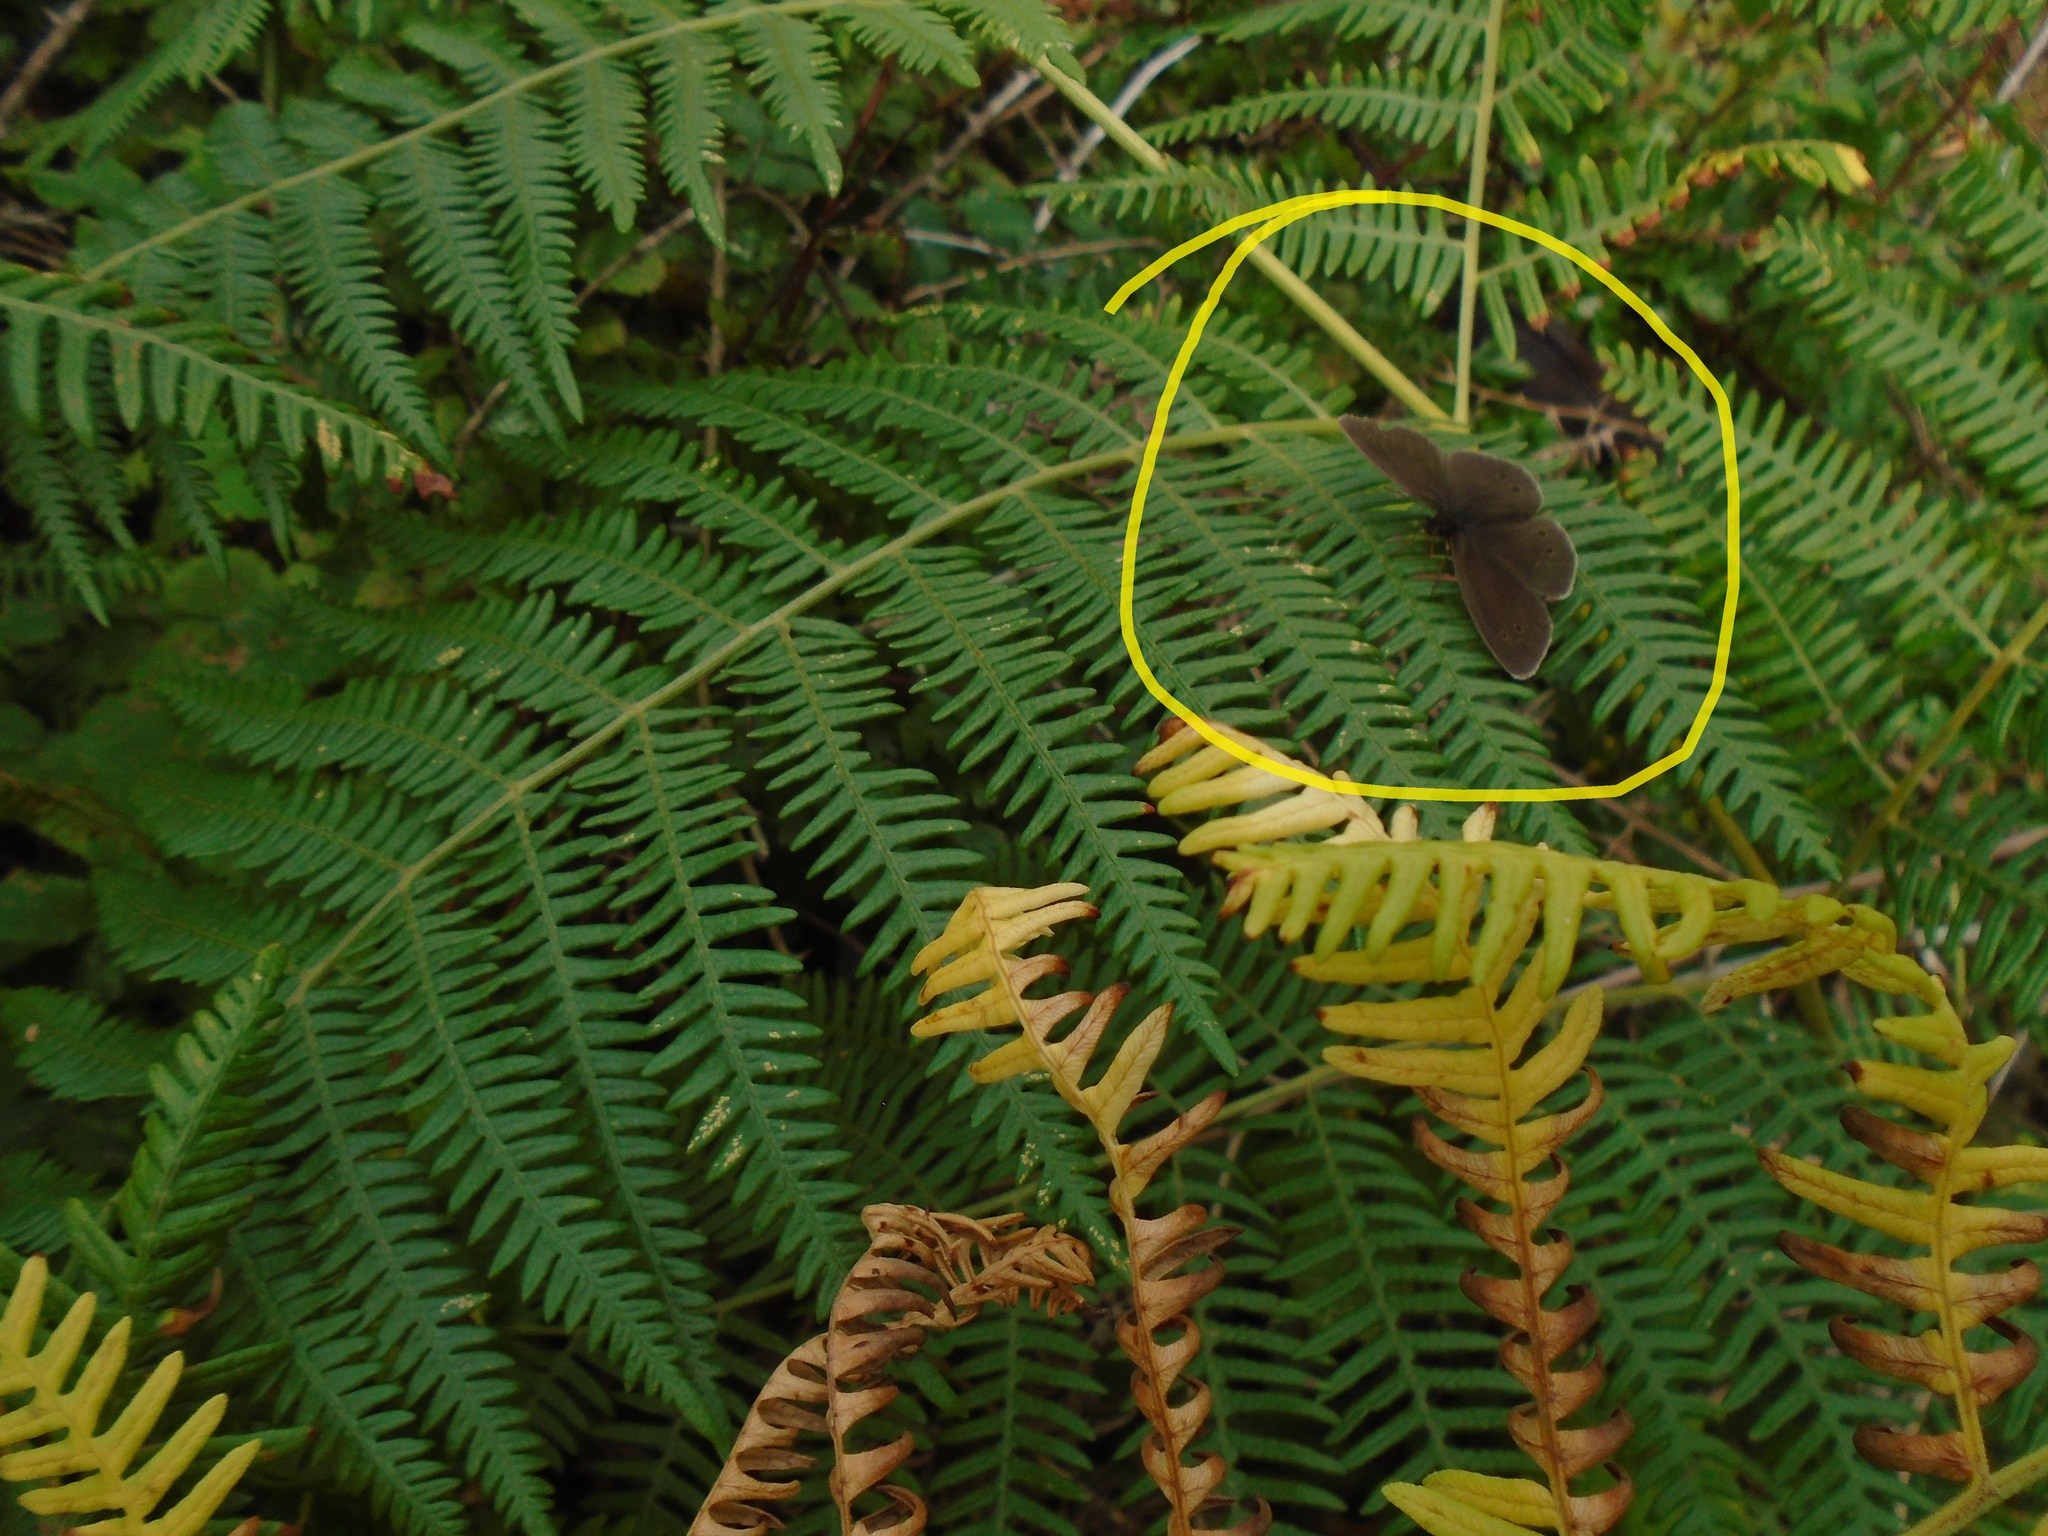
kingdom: Animalia
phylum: Arthropoda
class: Insecta
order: Lepidoptera
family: Nymphalidae
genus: Aphantopus
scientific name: Aphantopus hyperantus
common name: Ringlet
